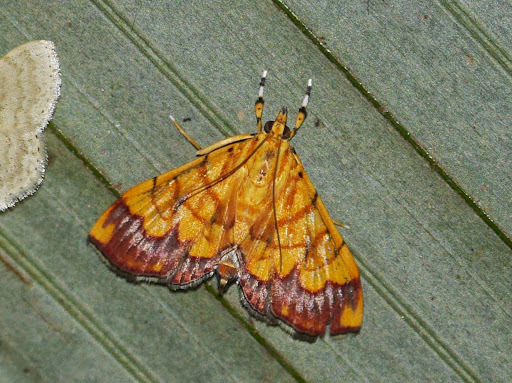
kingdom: Animalia
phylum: Arthropoda
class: Insecta
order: Lepidoptera
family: Crambidae
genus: Cryptosara
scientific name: Cryptosara caritalis
